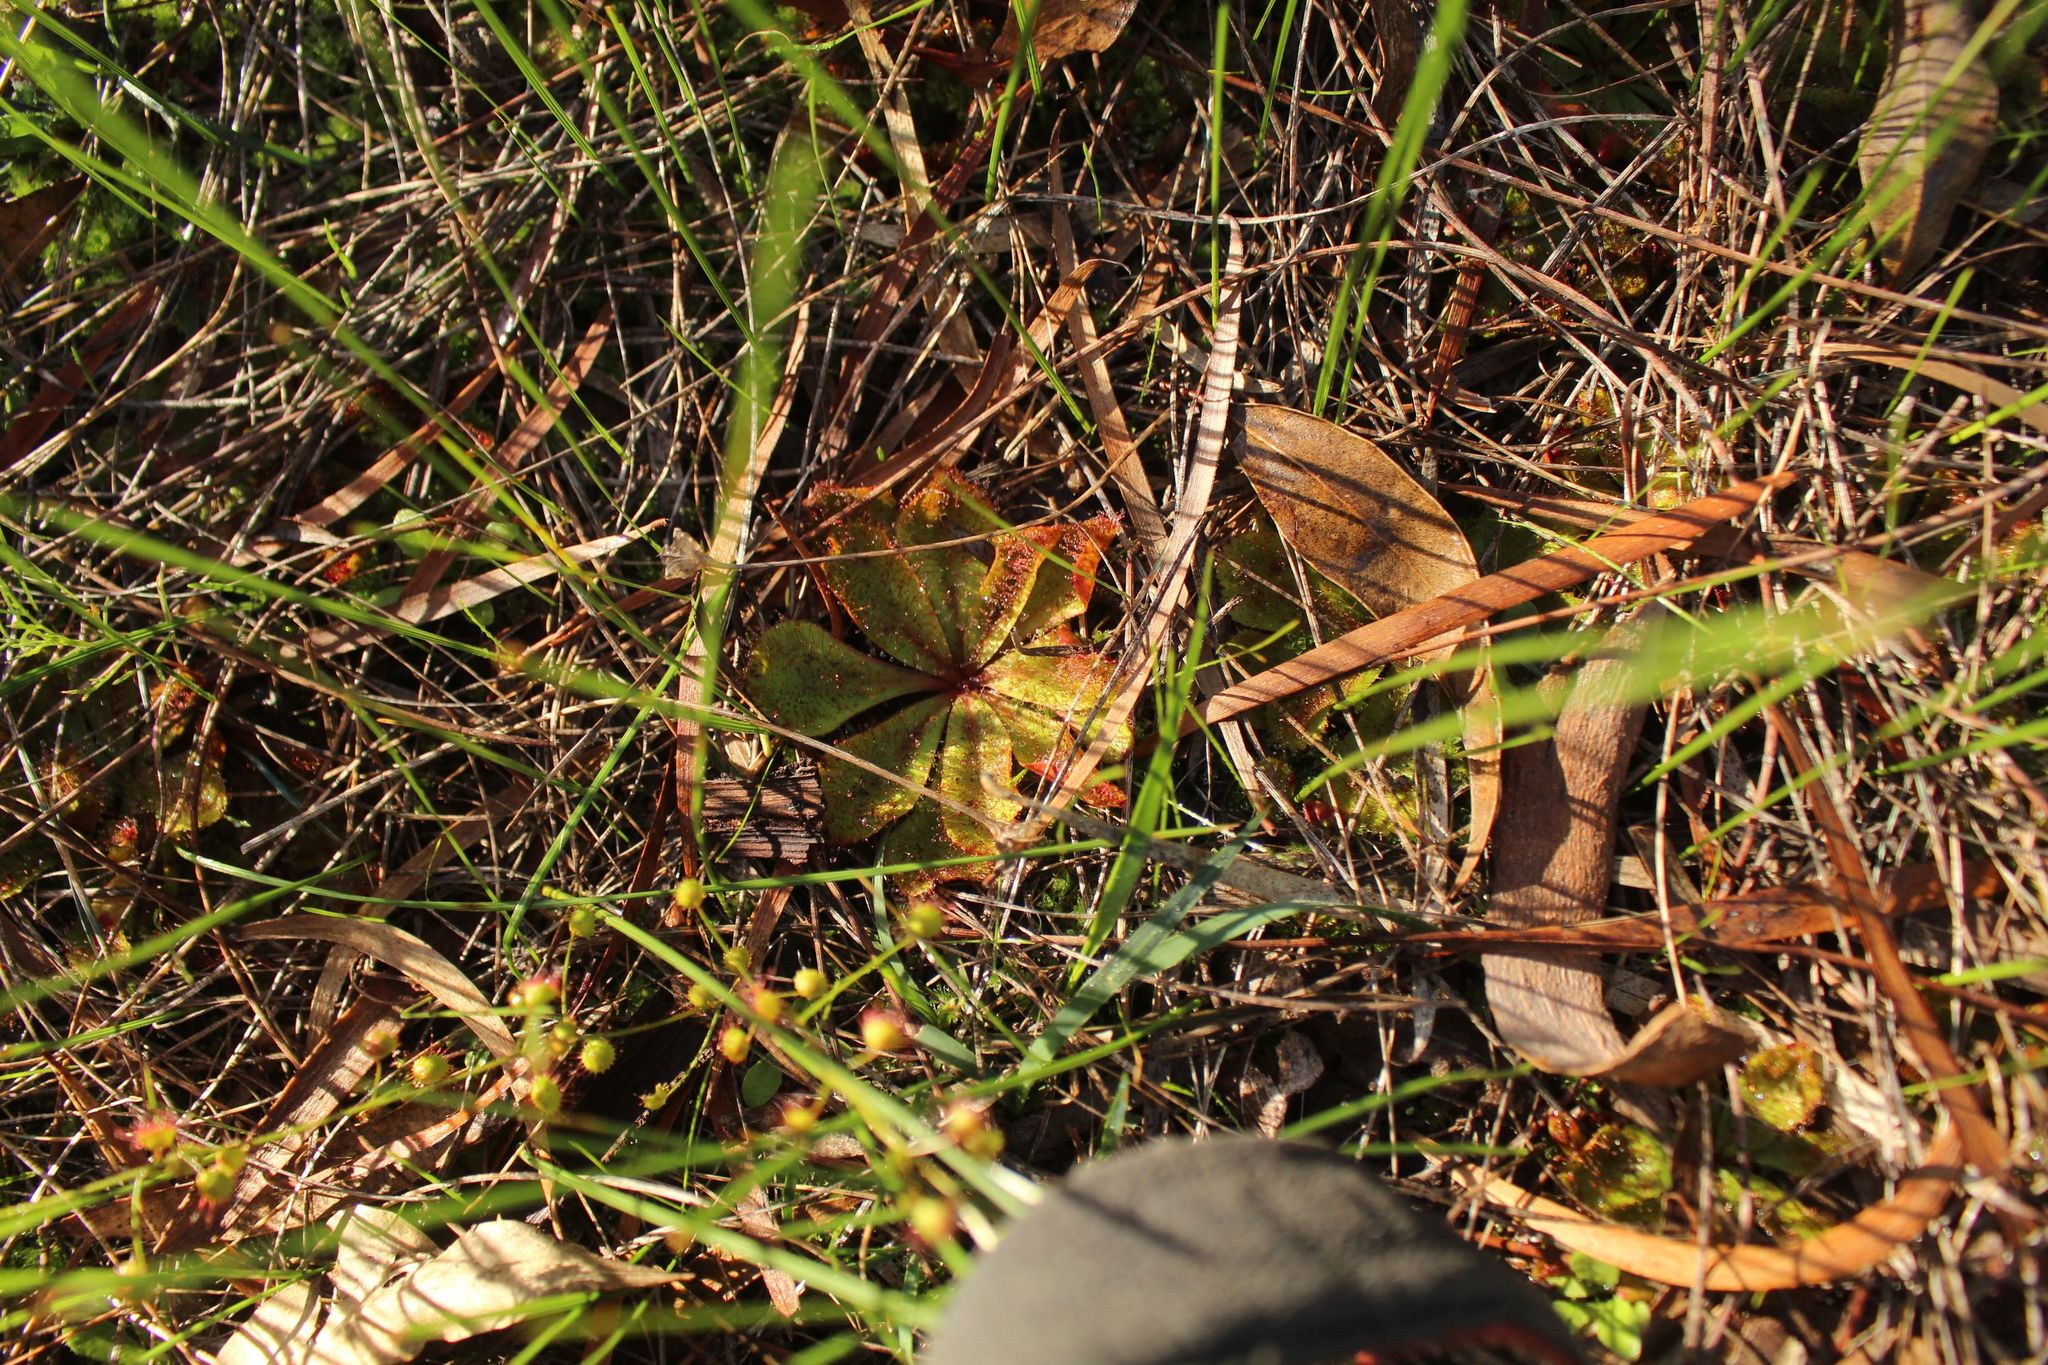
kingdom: Plantae
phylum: Tracheophyta
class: Magnoliopsida
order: Caryophyllales
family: Droseraceae
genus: Drosera
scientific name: Drosera rosulata
